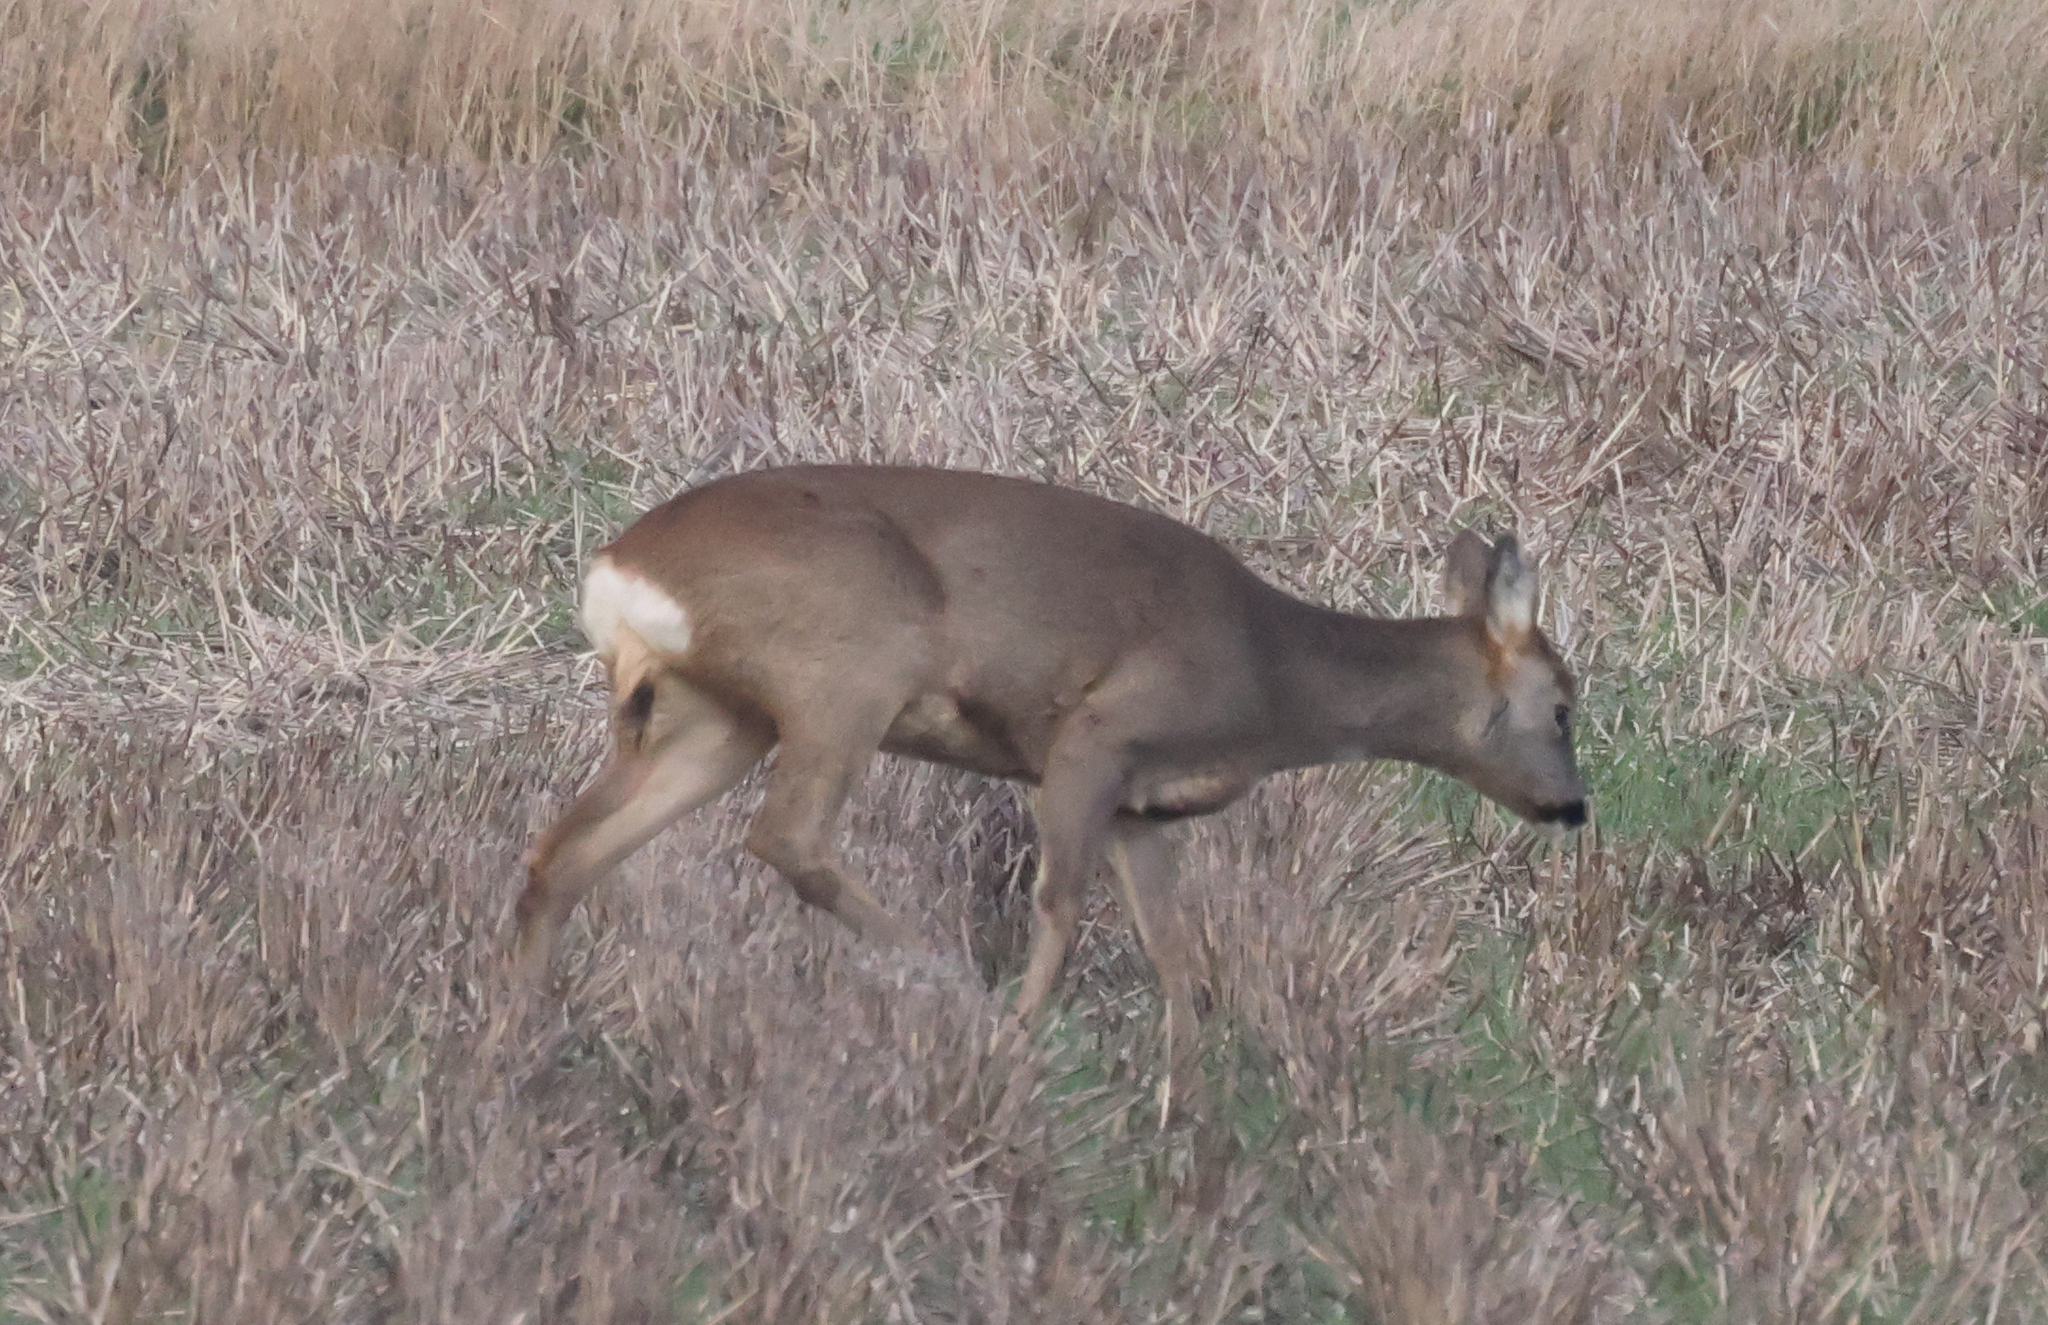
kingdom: Animalia
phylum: Chordata
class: Mammalia
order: Artiodactyla
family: Cervidae
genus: Capreolus
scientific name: Capreolus capreolus
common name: Western roe deer
